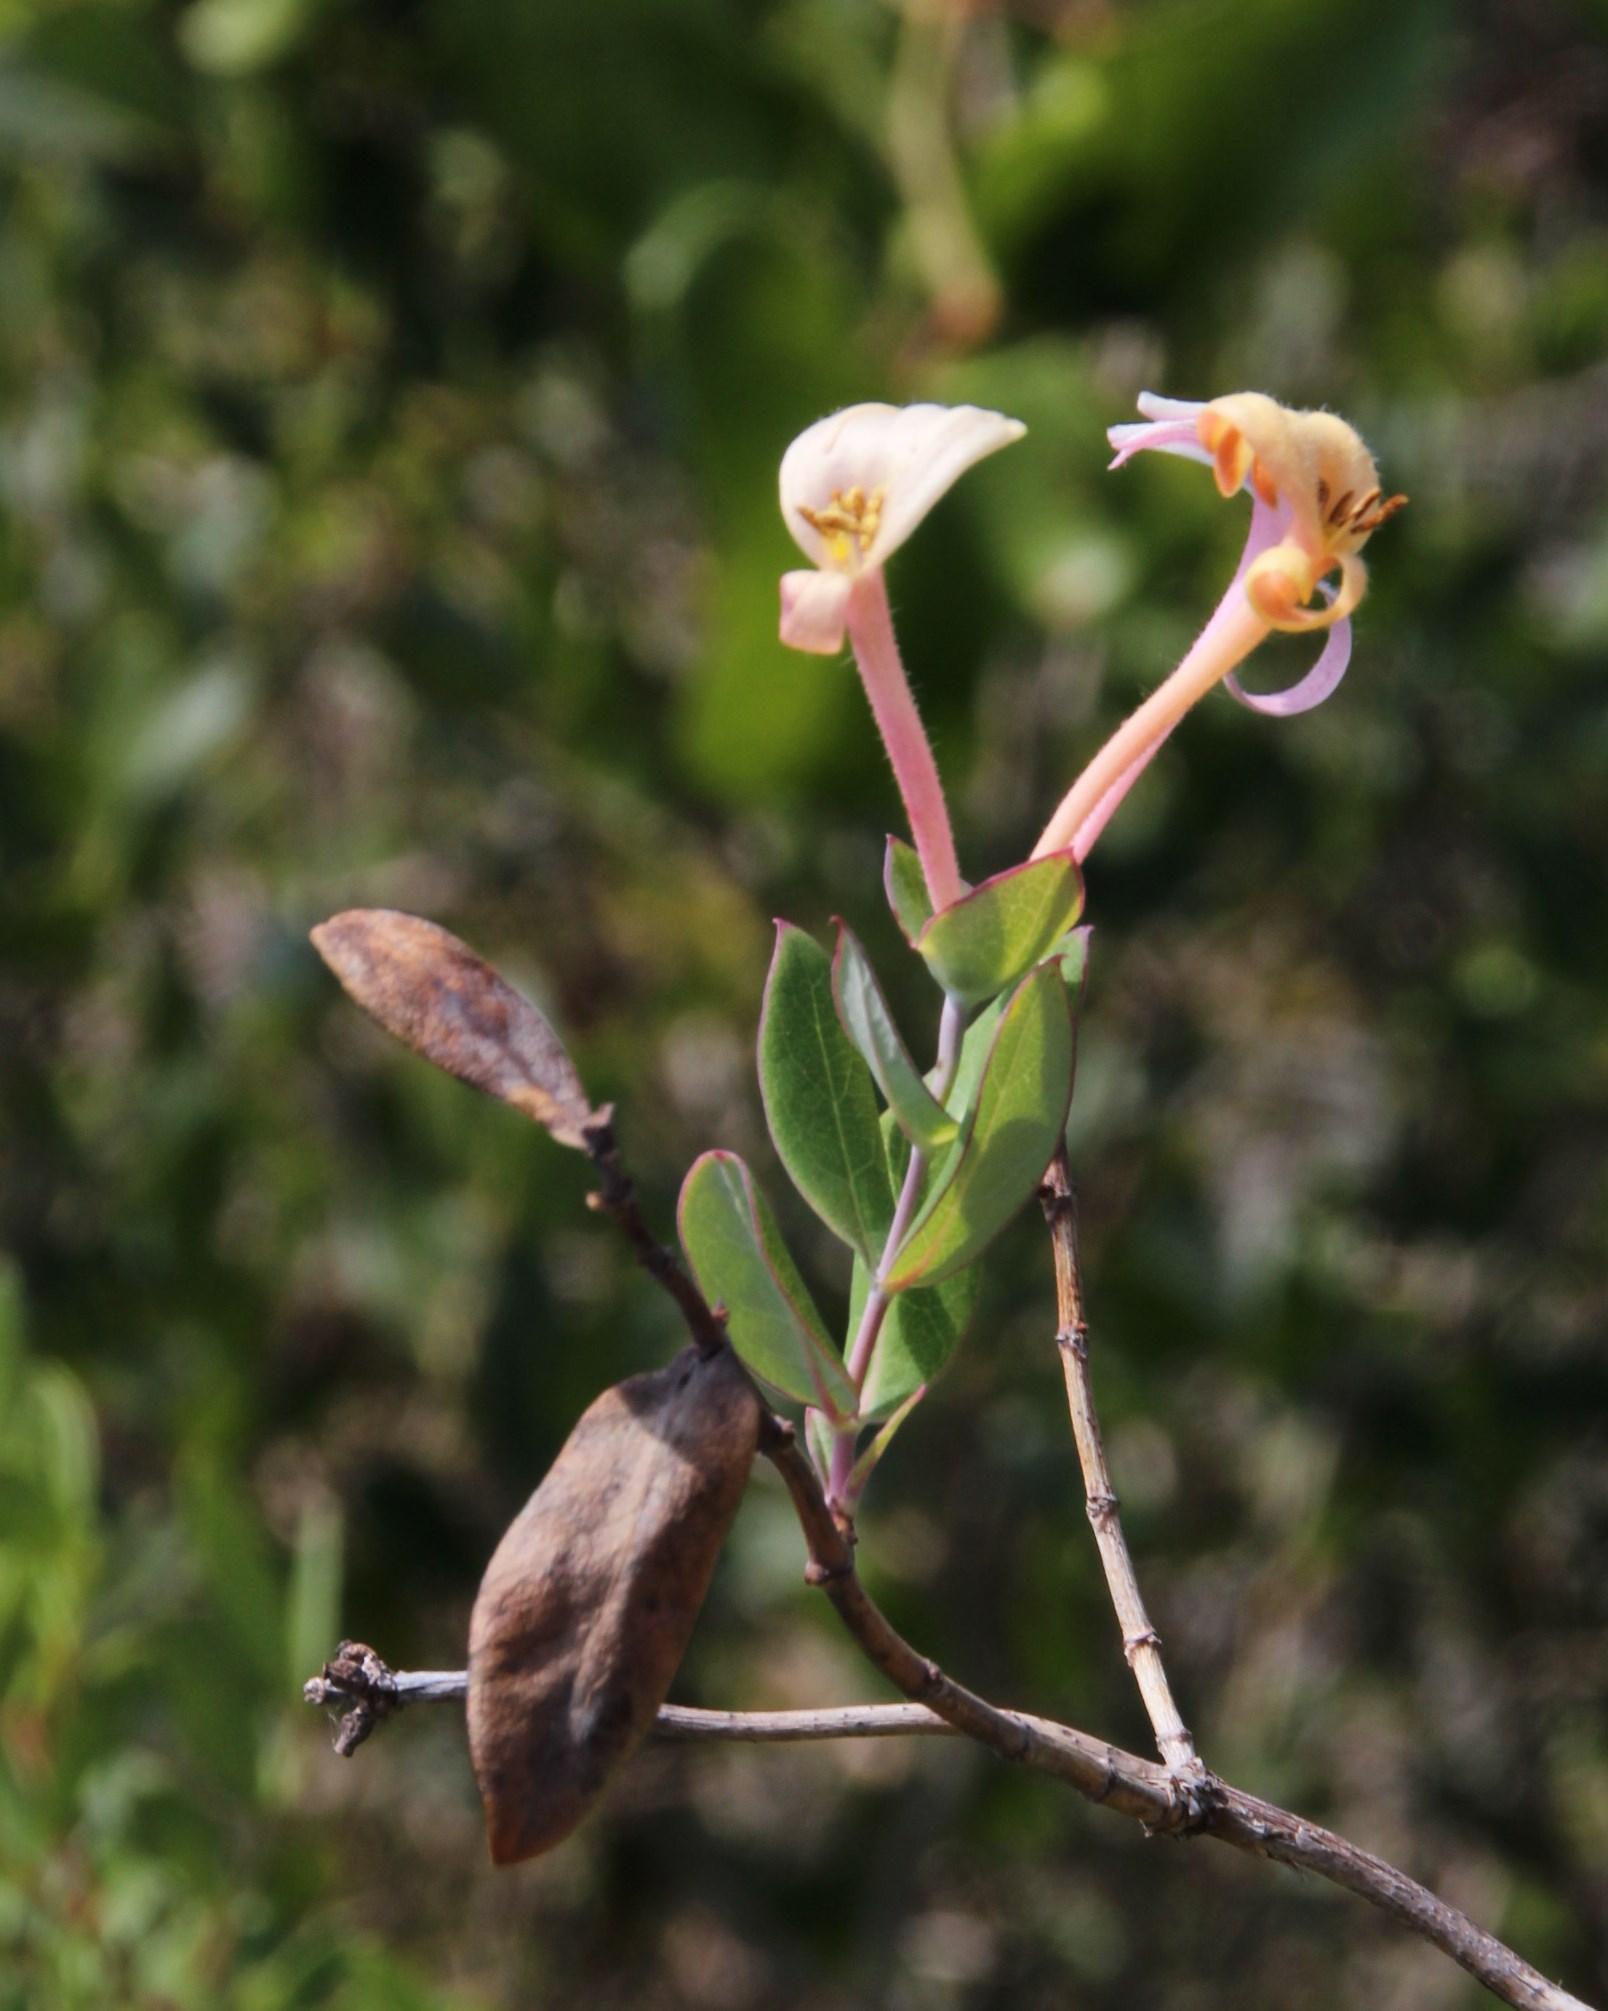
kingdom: Plantae
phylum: Tracheophyta
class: Magnoliopsida
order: Dipsacales
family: Caprifoliaceae
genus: Lonicera
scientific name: Lonicera implexa
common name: Minorca honeysuckle
